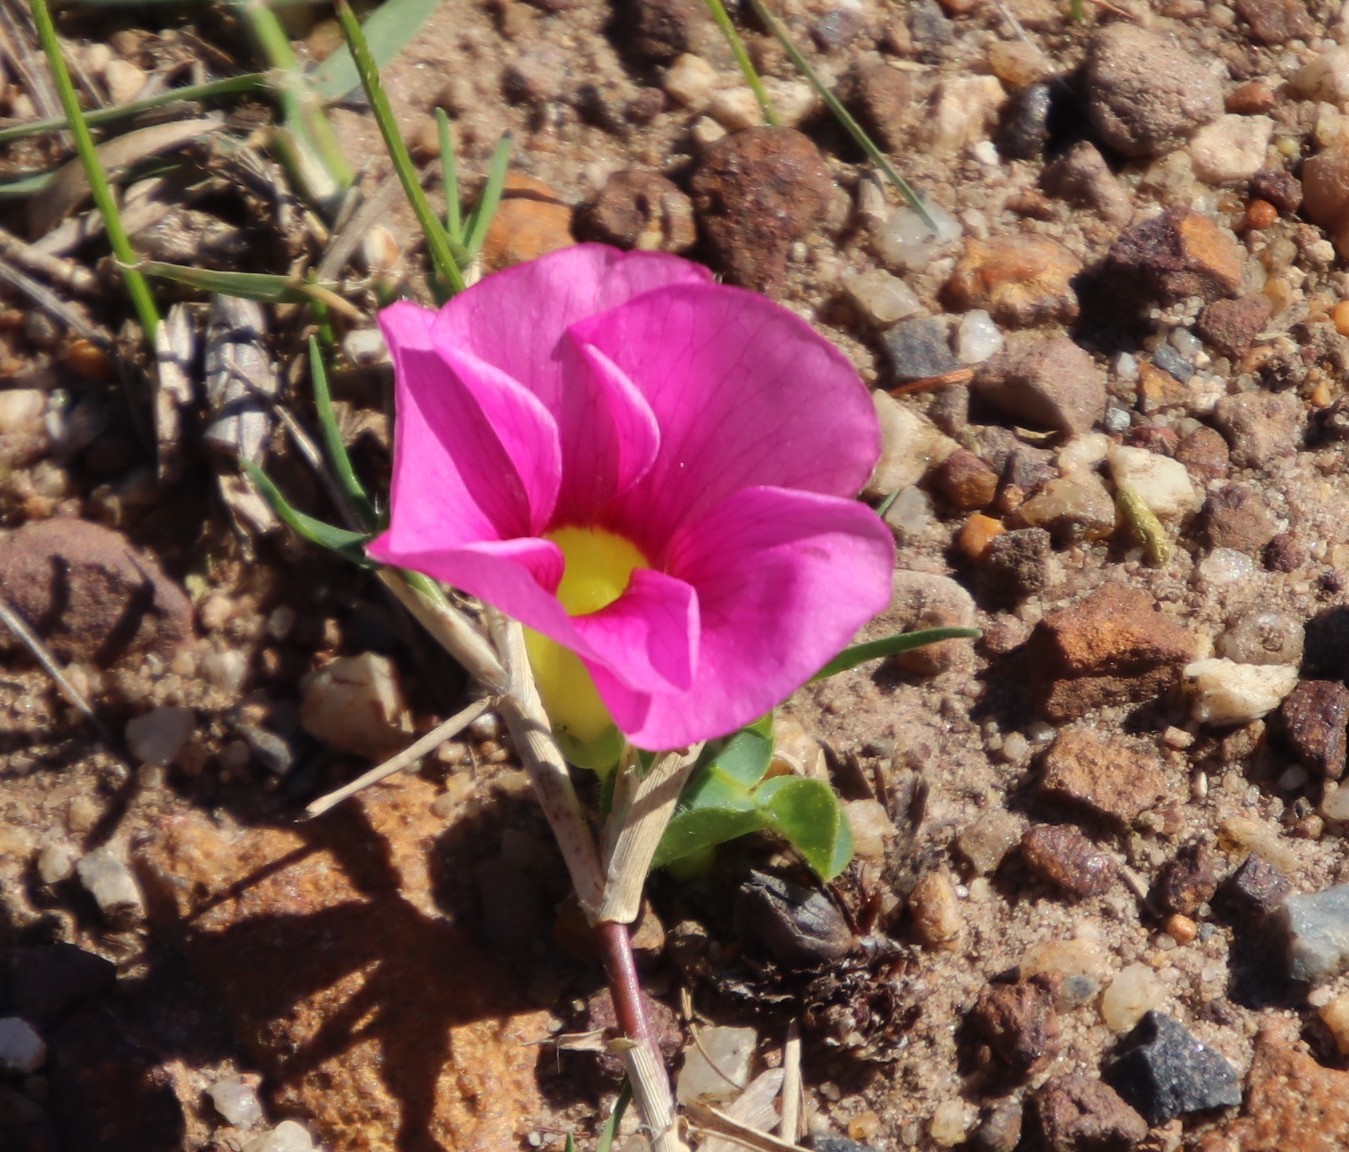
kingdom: Plantae
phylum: Tracheophyta
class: Magnoliopsida
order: Oxalidales
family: Oxalidaceae
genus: Oxalis
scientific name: Oxalis purpurea
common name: Purple woodsorrel
